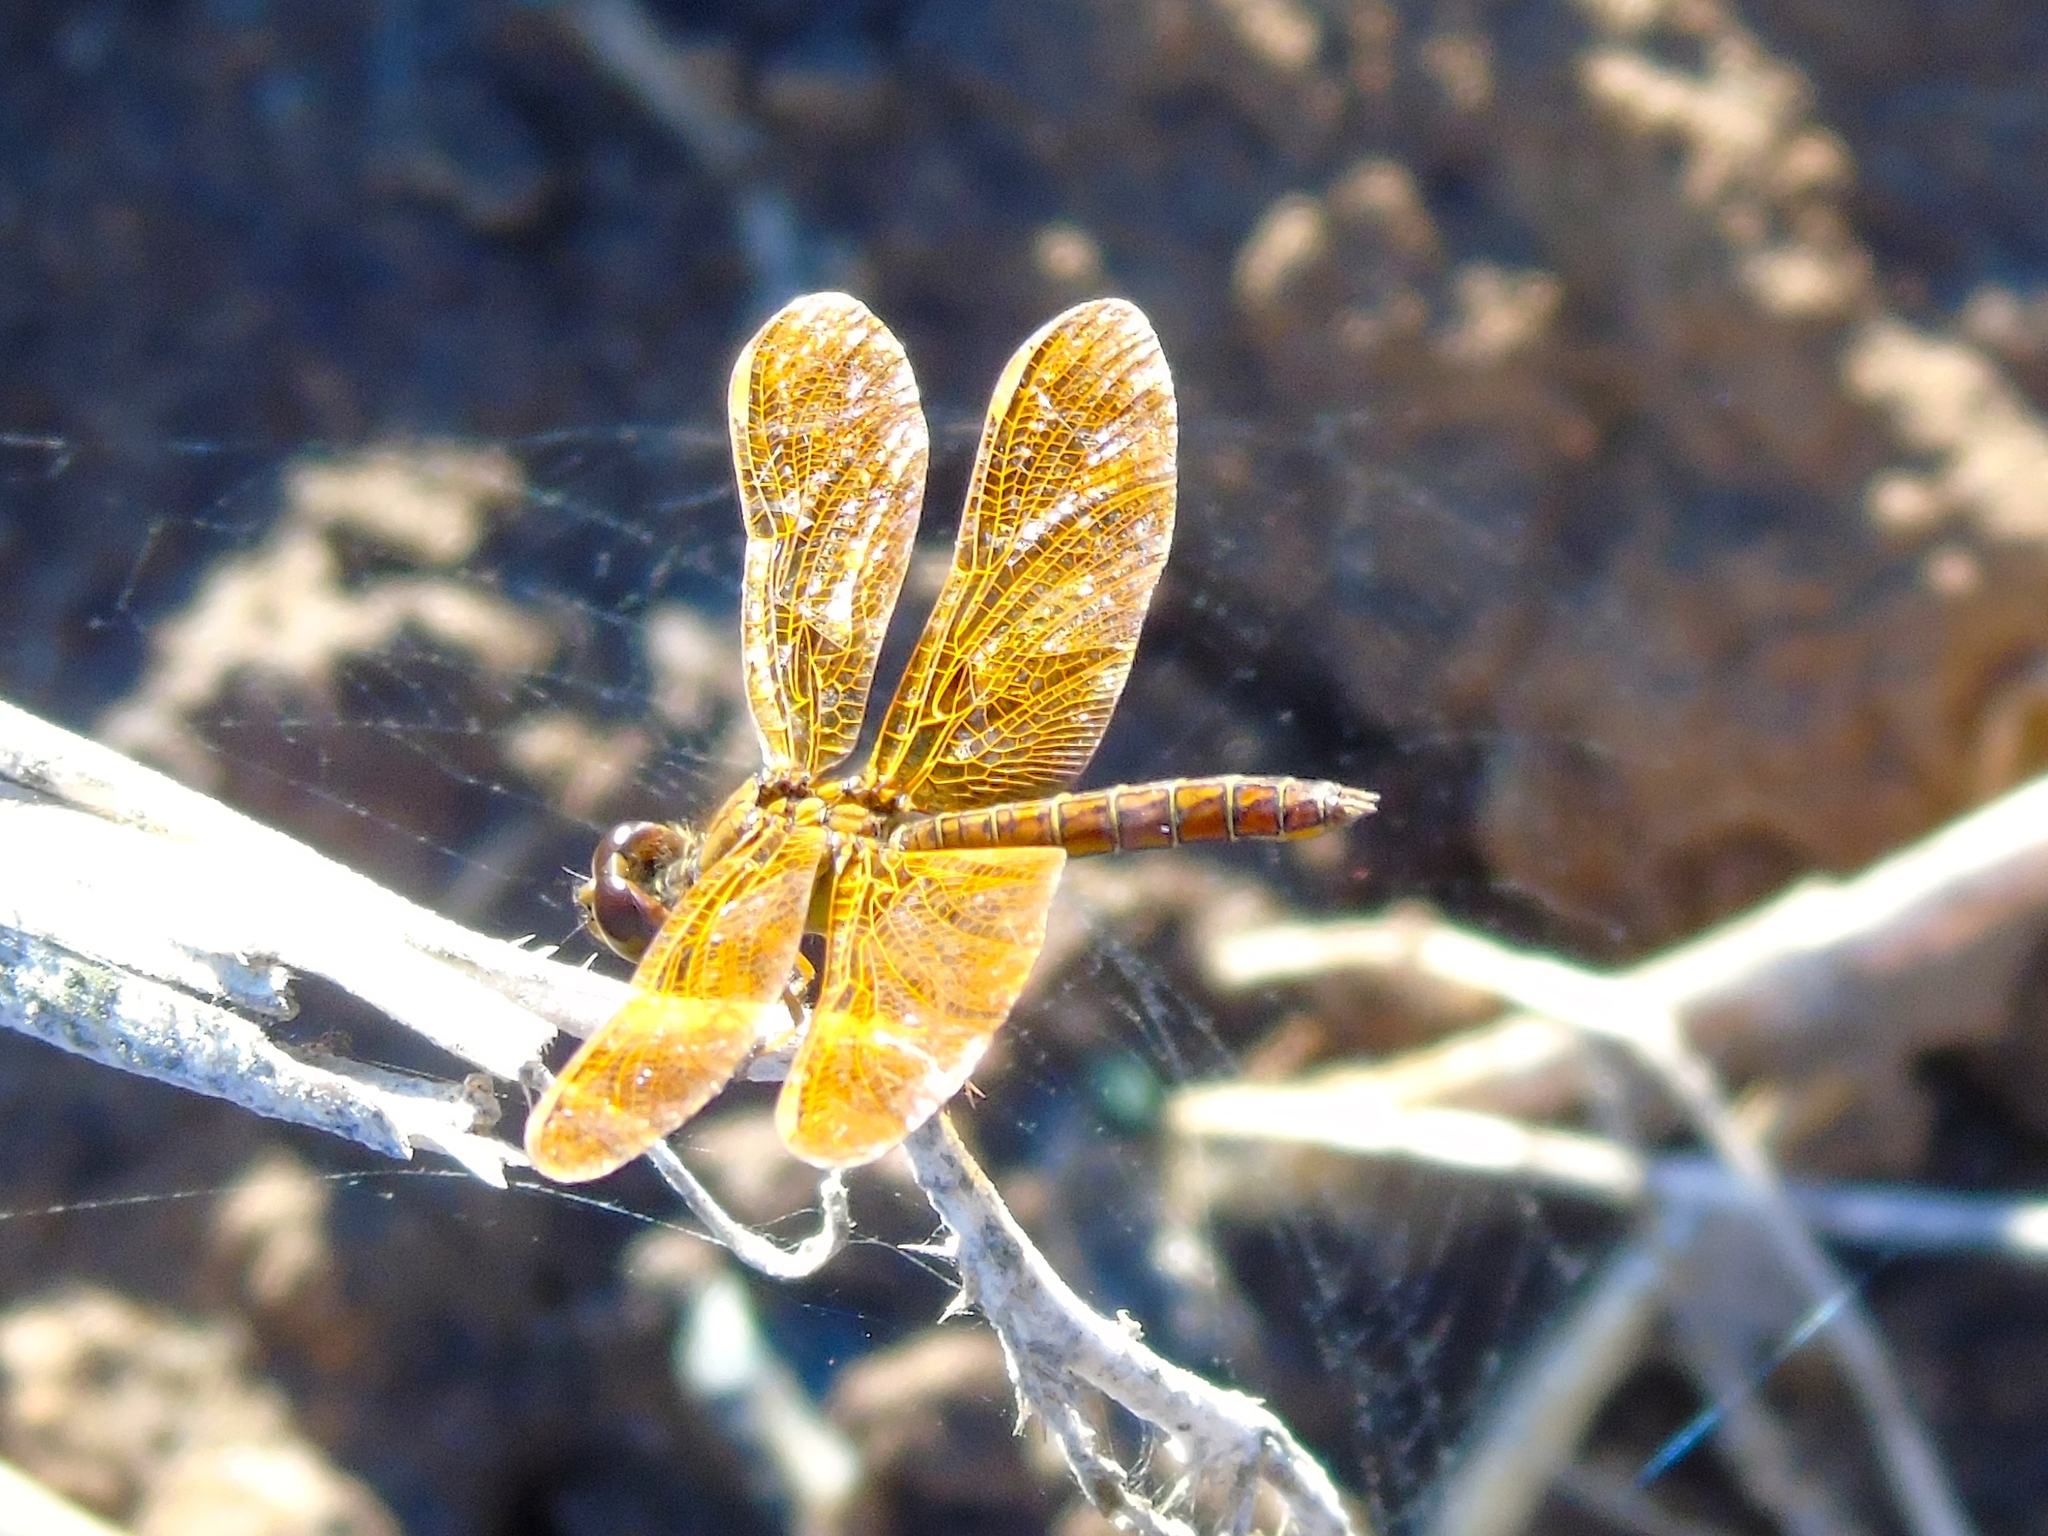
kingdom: Animalia
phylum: Arthropoda
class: Insecta
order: Odonata
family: Libellulidae
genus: Perithemis
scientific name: Perithemis
